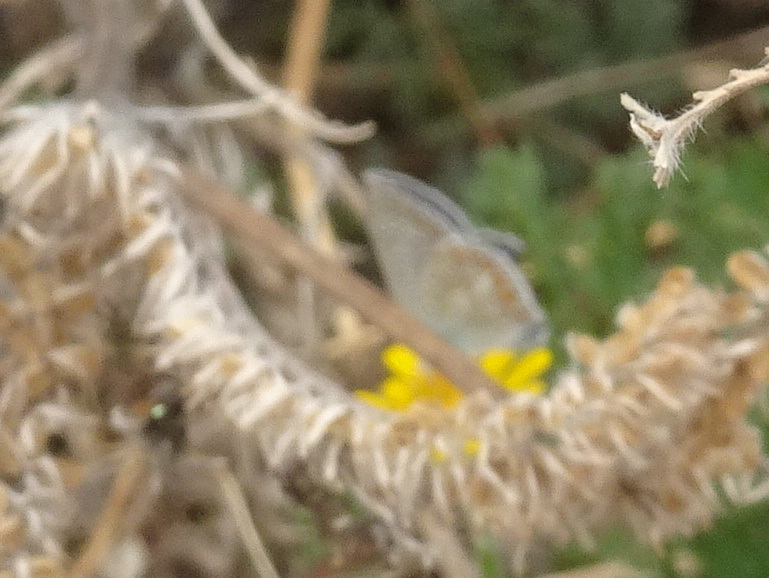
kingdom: Animalia
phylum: Arthropoda
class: Insecta
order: Lepidoptera
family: Lycaenidae
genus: Polyommatus
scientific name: Polyommatus icarus
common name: Common blue
